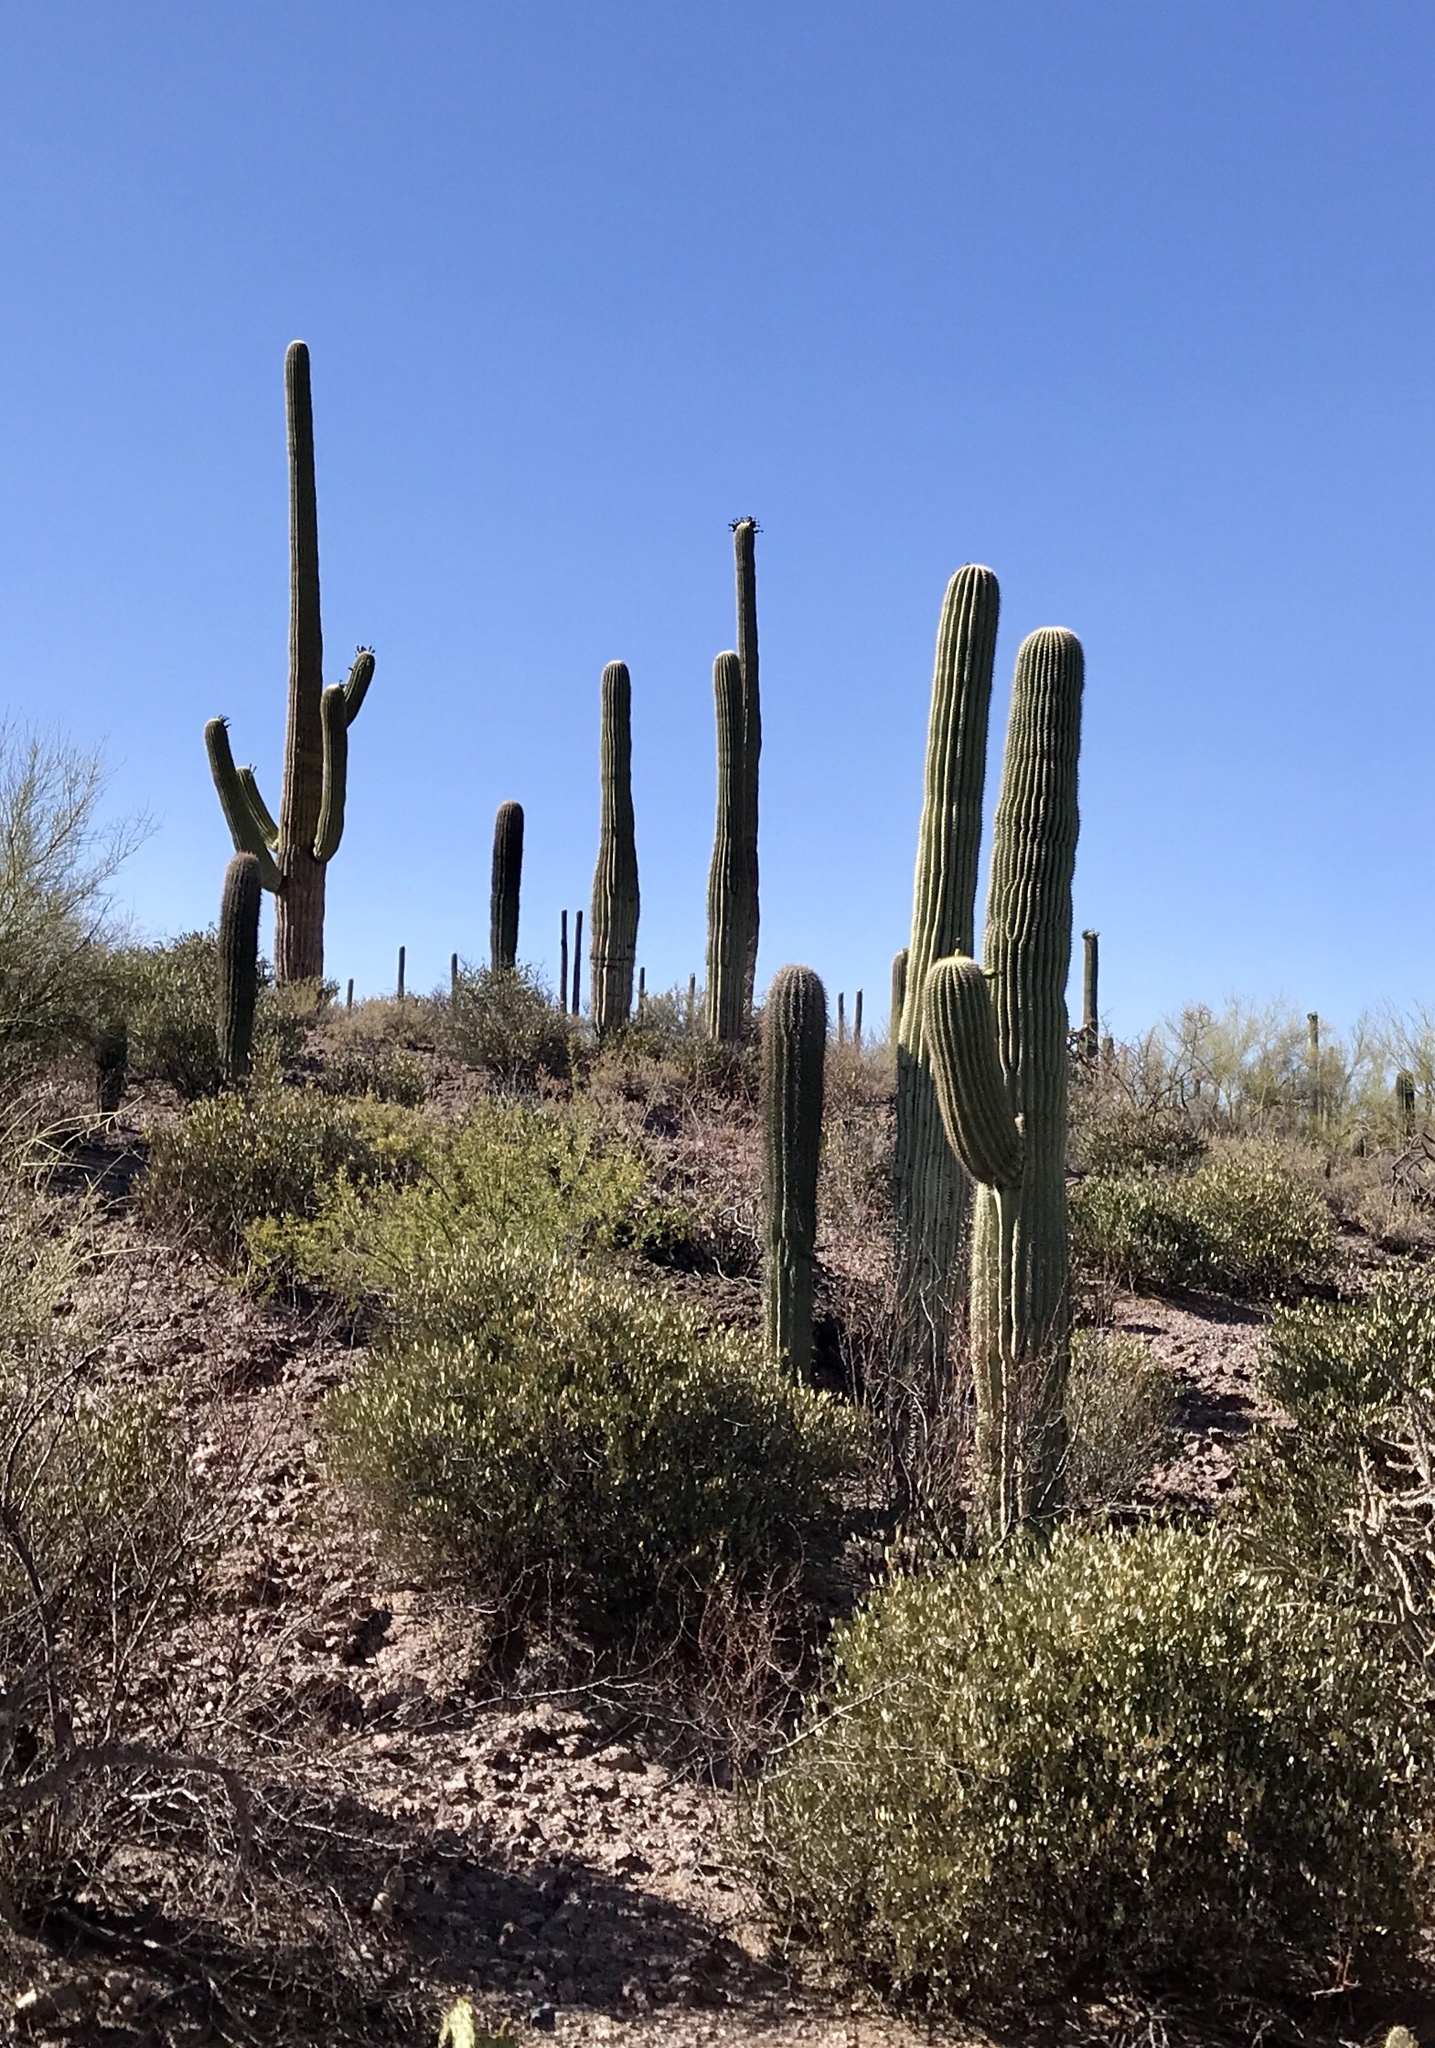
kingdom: Plantae
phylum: Tracheophyta
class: Magnoliopsida
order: Caryophyllales
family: Cactaceae
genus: Carnegiea
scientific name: Carnegiea gigantea
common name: Saguaro
